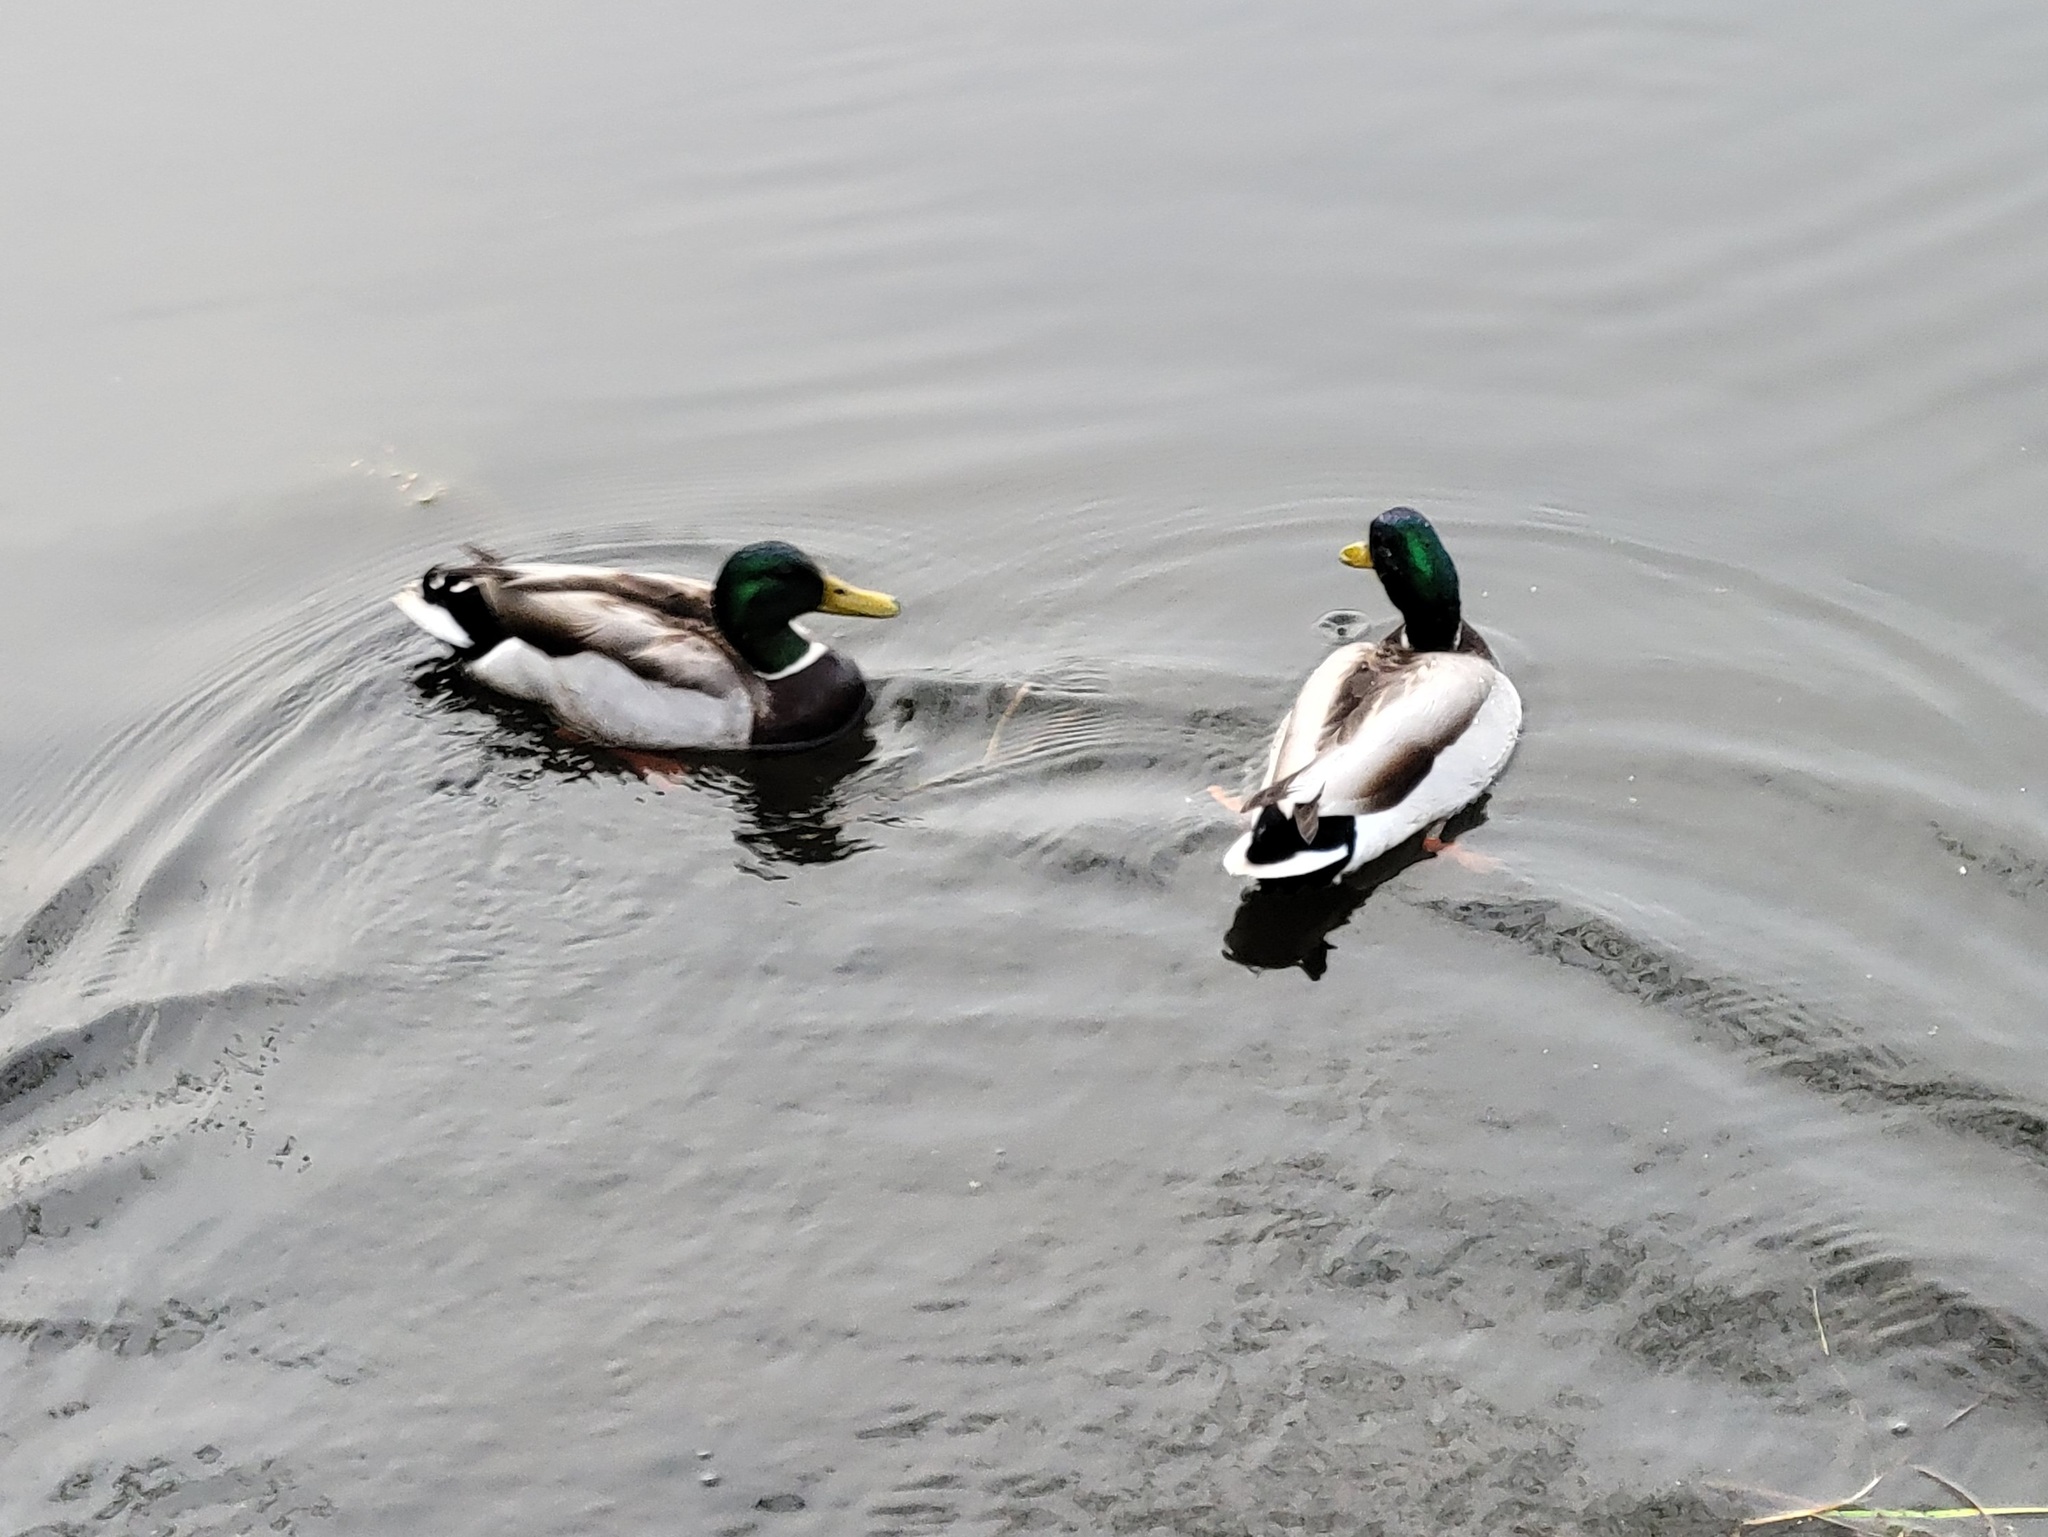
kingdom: Animalia
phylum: Chordata
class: Aves
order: Anseriformes
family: Anatidae
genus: Anas
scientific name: Anas platyrhynchos
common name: Mallard
